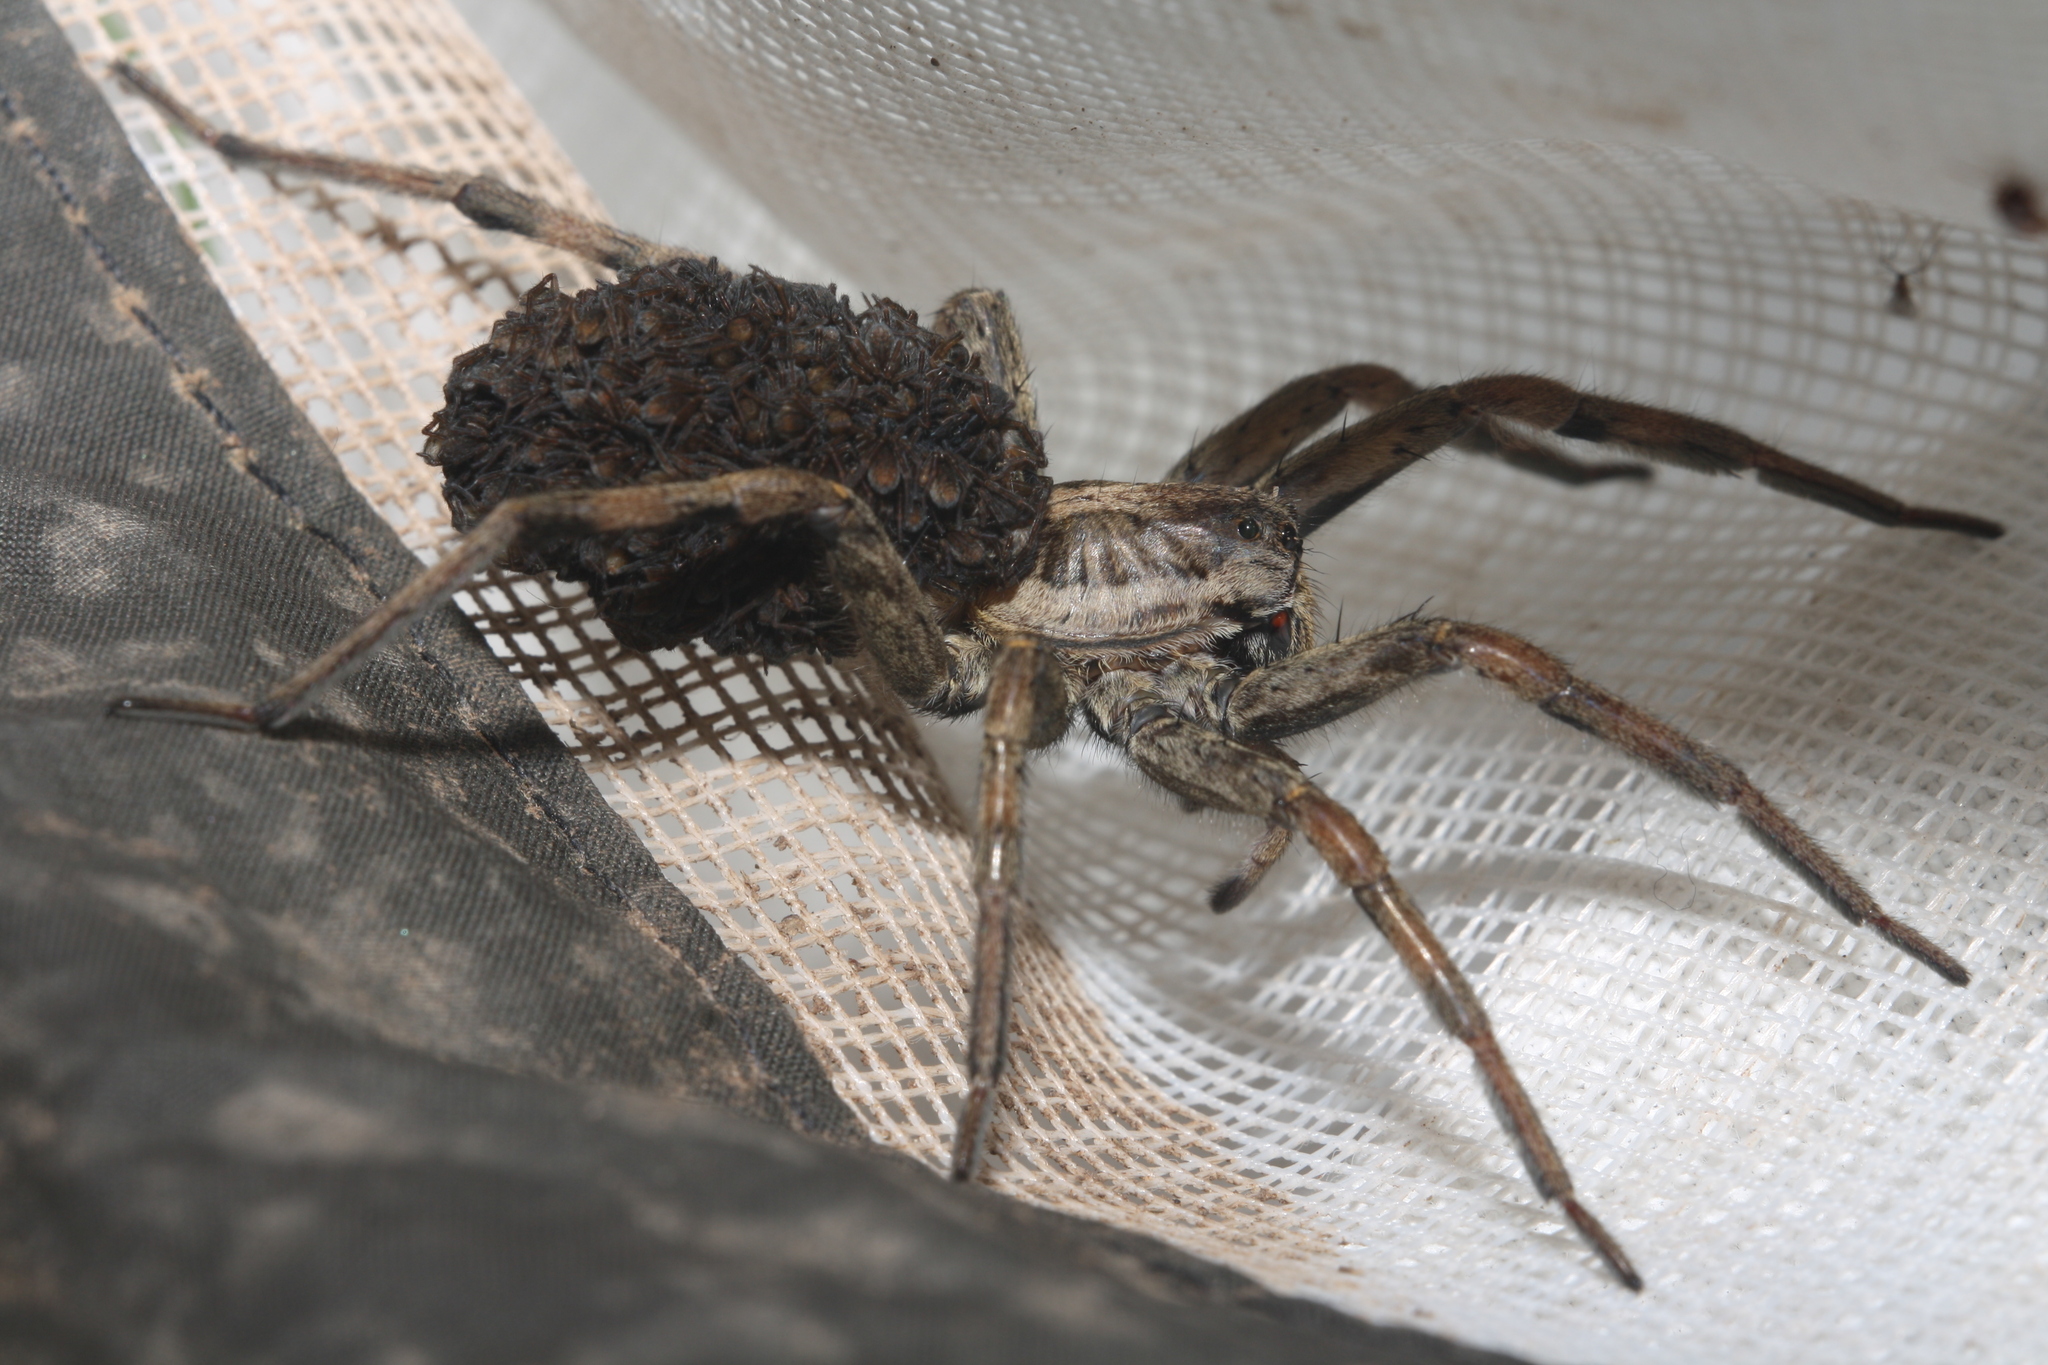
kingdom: Animalia
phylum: Arthropoda
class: Arachnida
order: Araneae
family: Lycosidae
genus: Hogna
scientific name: Hogna radiata
